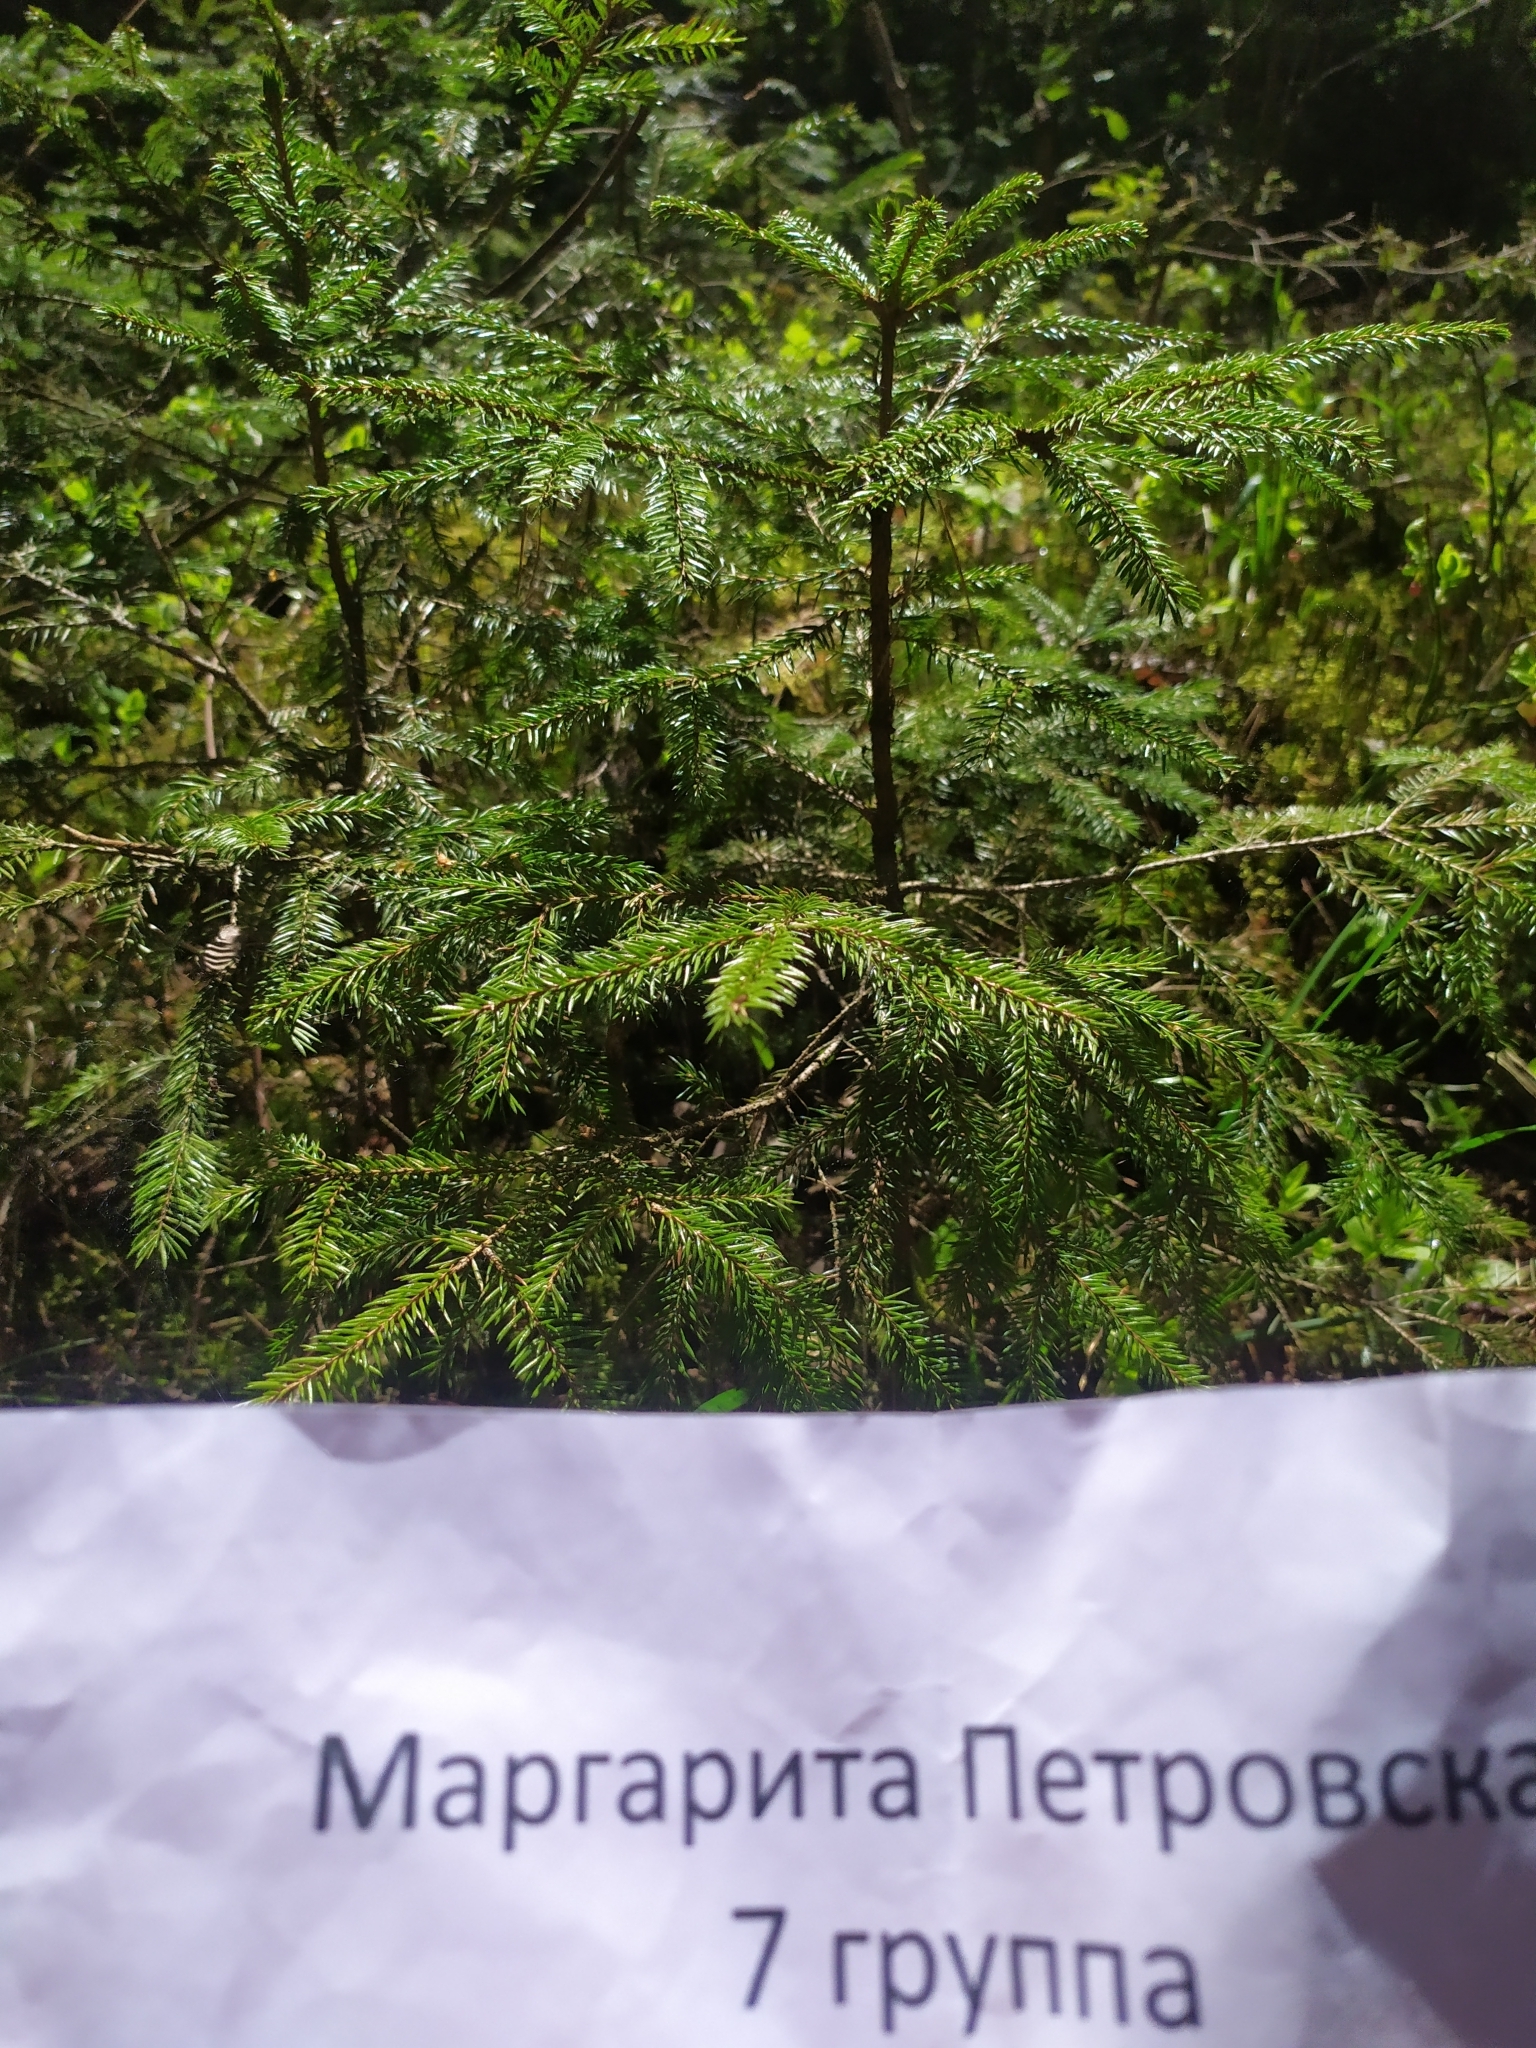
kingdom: Plantae
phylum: Tracheophyta
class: Pinopsida
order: Pinales
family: Pinaceae
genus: Picea
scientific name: Picea abies
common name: Norway spruce
